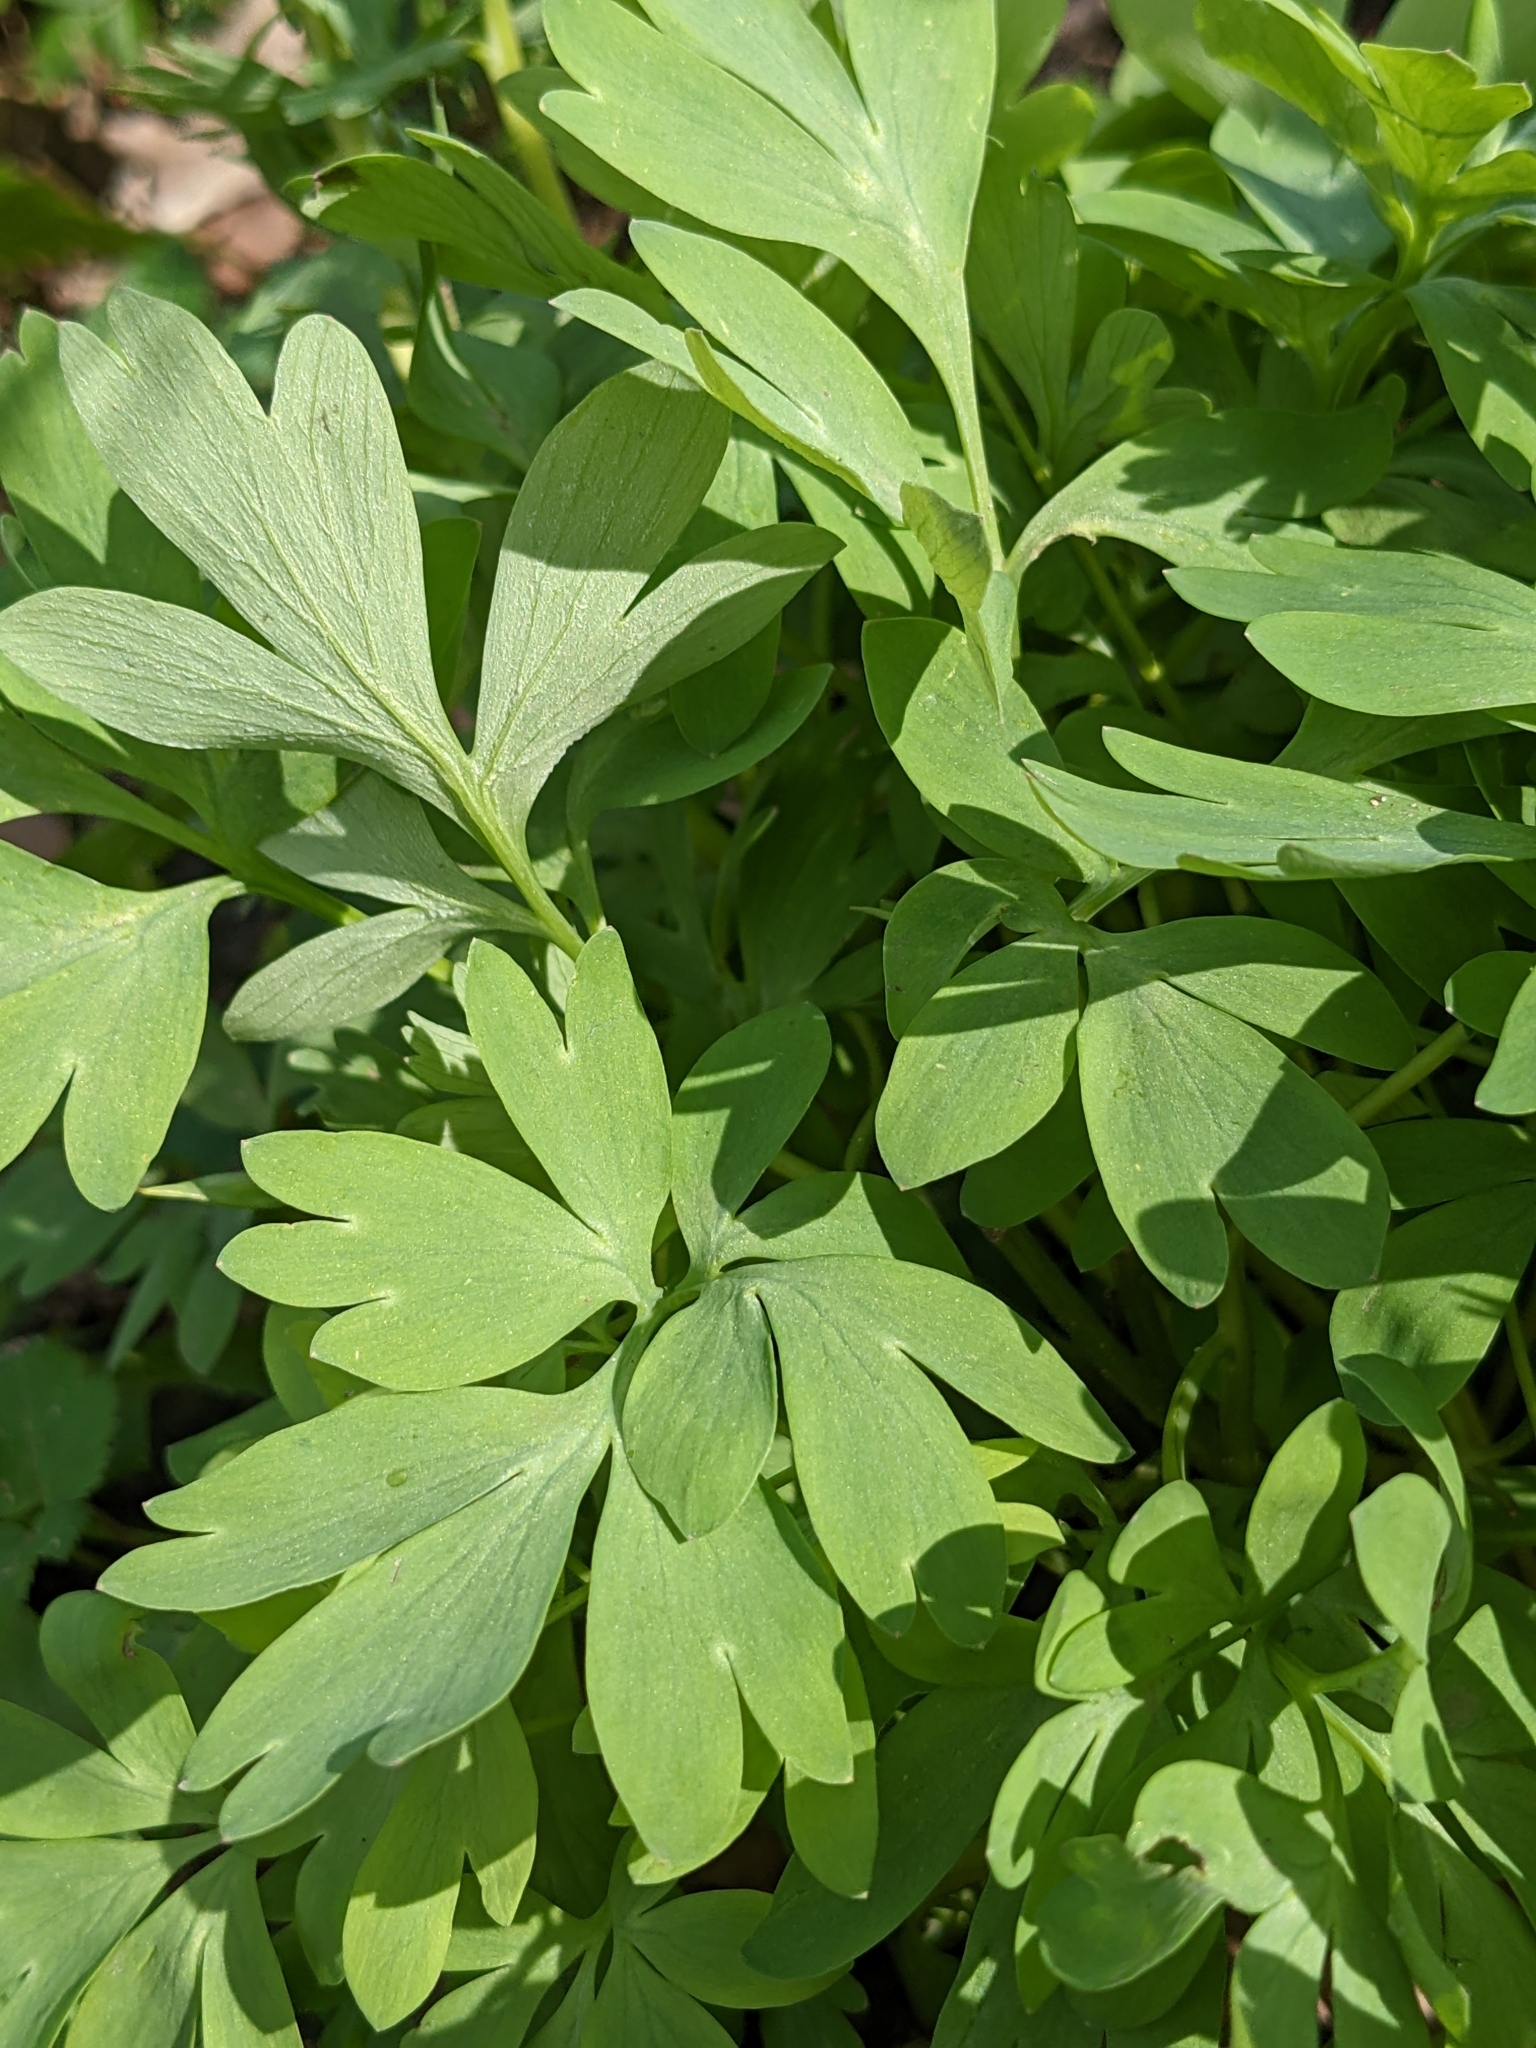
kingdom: Plantae
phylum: Tracheophyta
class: Magnoliopsida
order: Ranunculales
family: Papaveraceae
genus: Corydalis
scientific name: Corydalis solida
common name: Bird-in-a-bush
